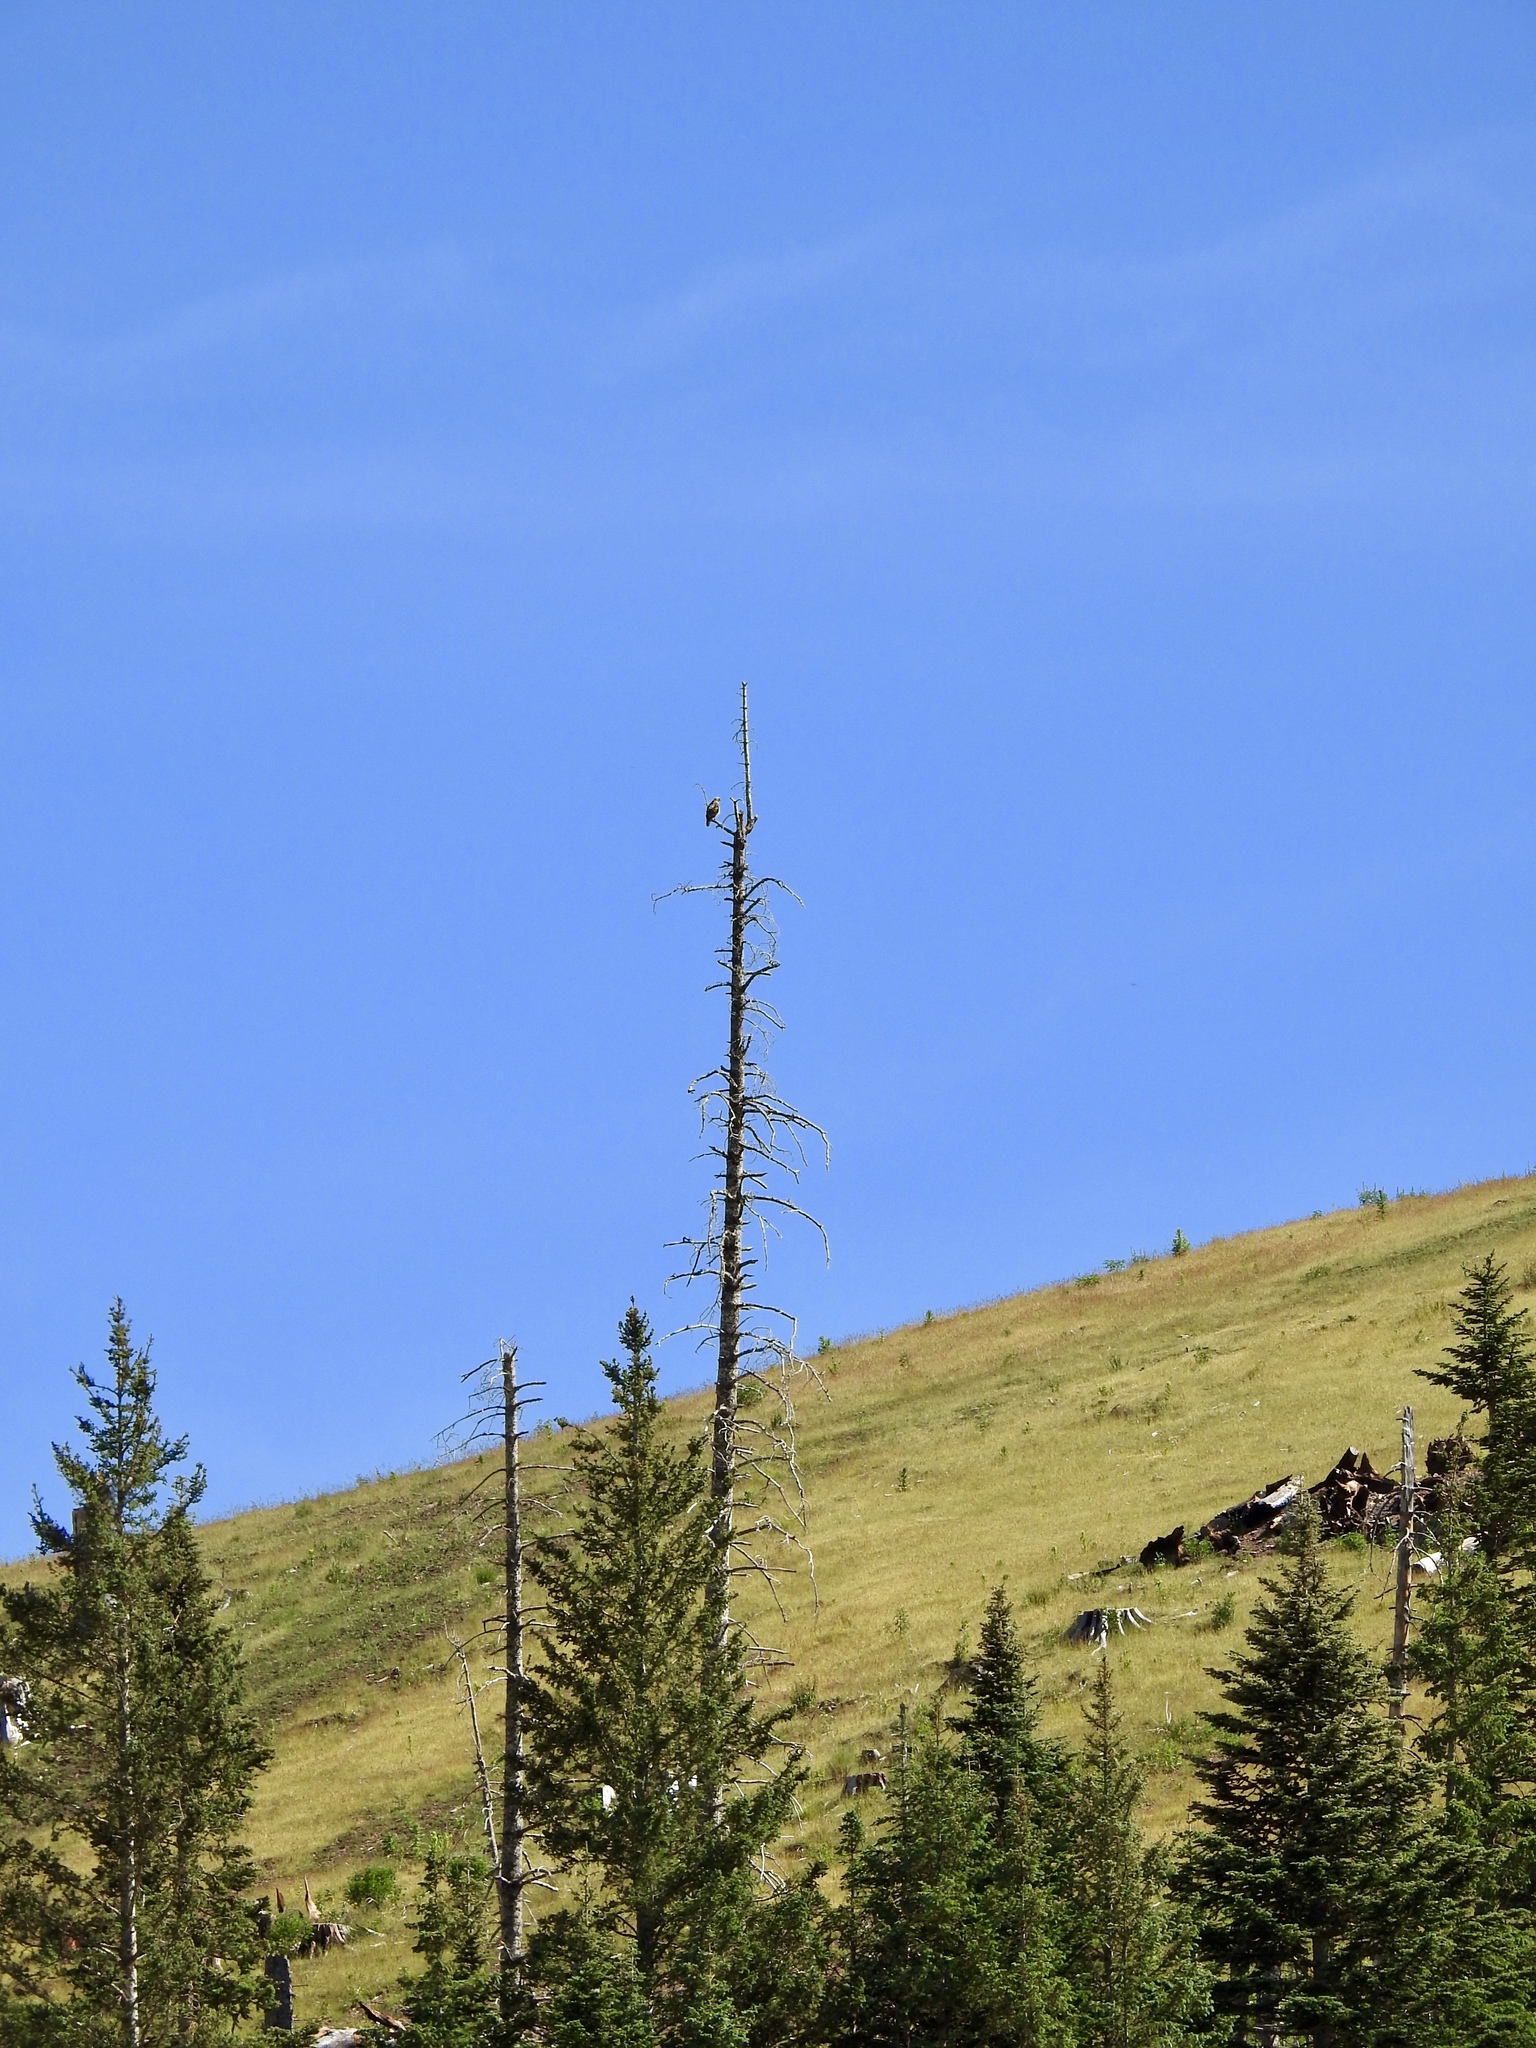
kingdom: Animalia
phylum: Chordata
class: Aves
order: Accipitriformes
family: Accipitridae
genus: Buteo
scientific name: Buteo jamaicensis
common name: Red-tailed hawk
